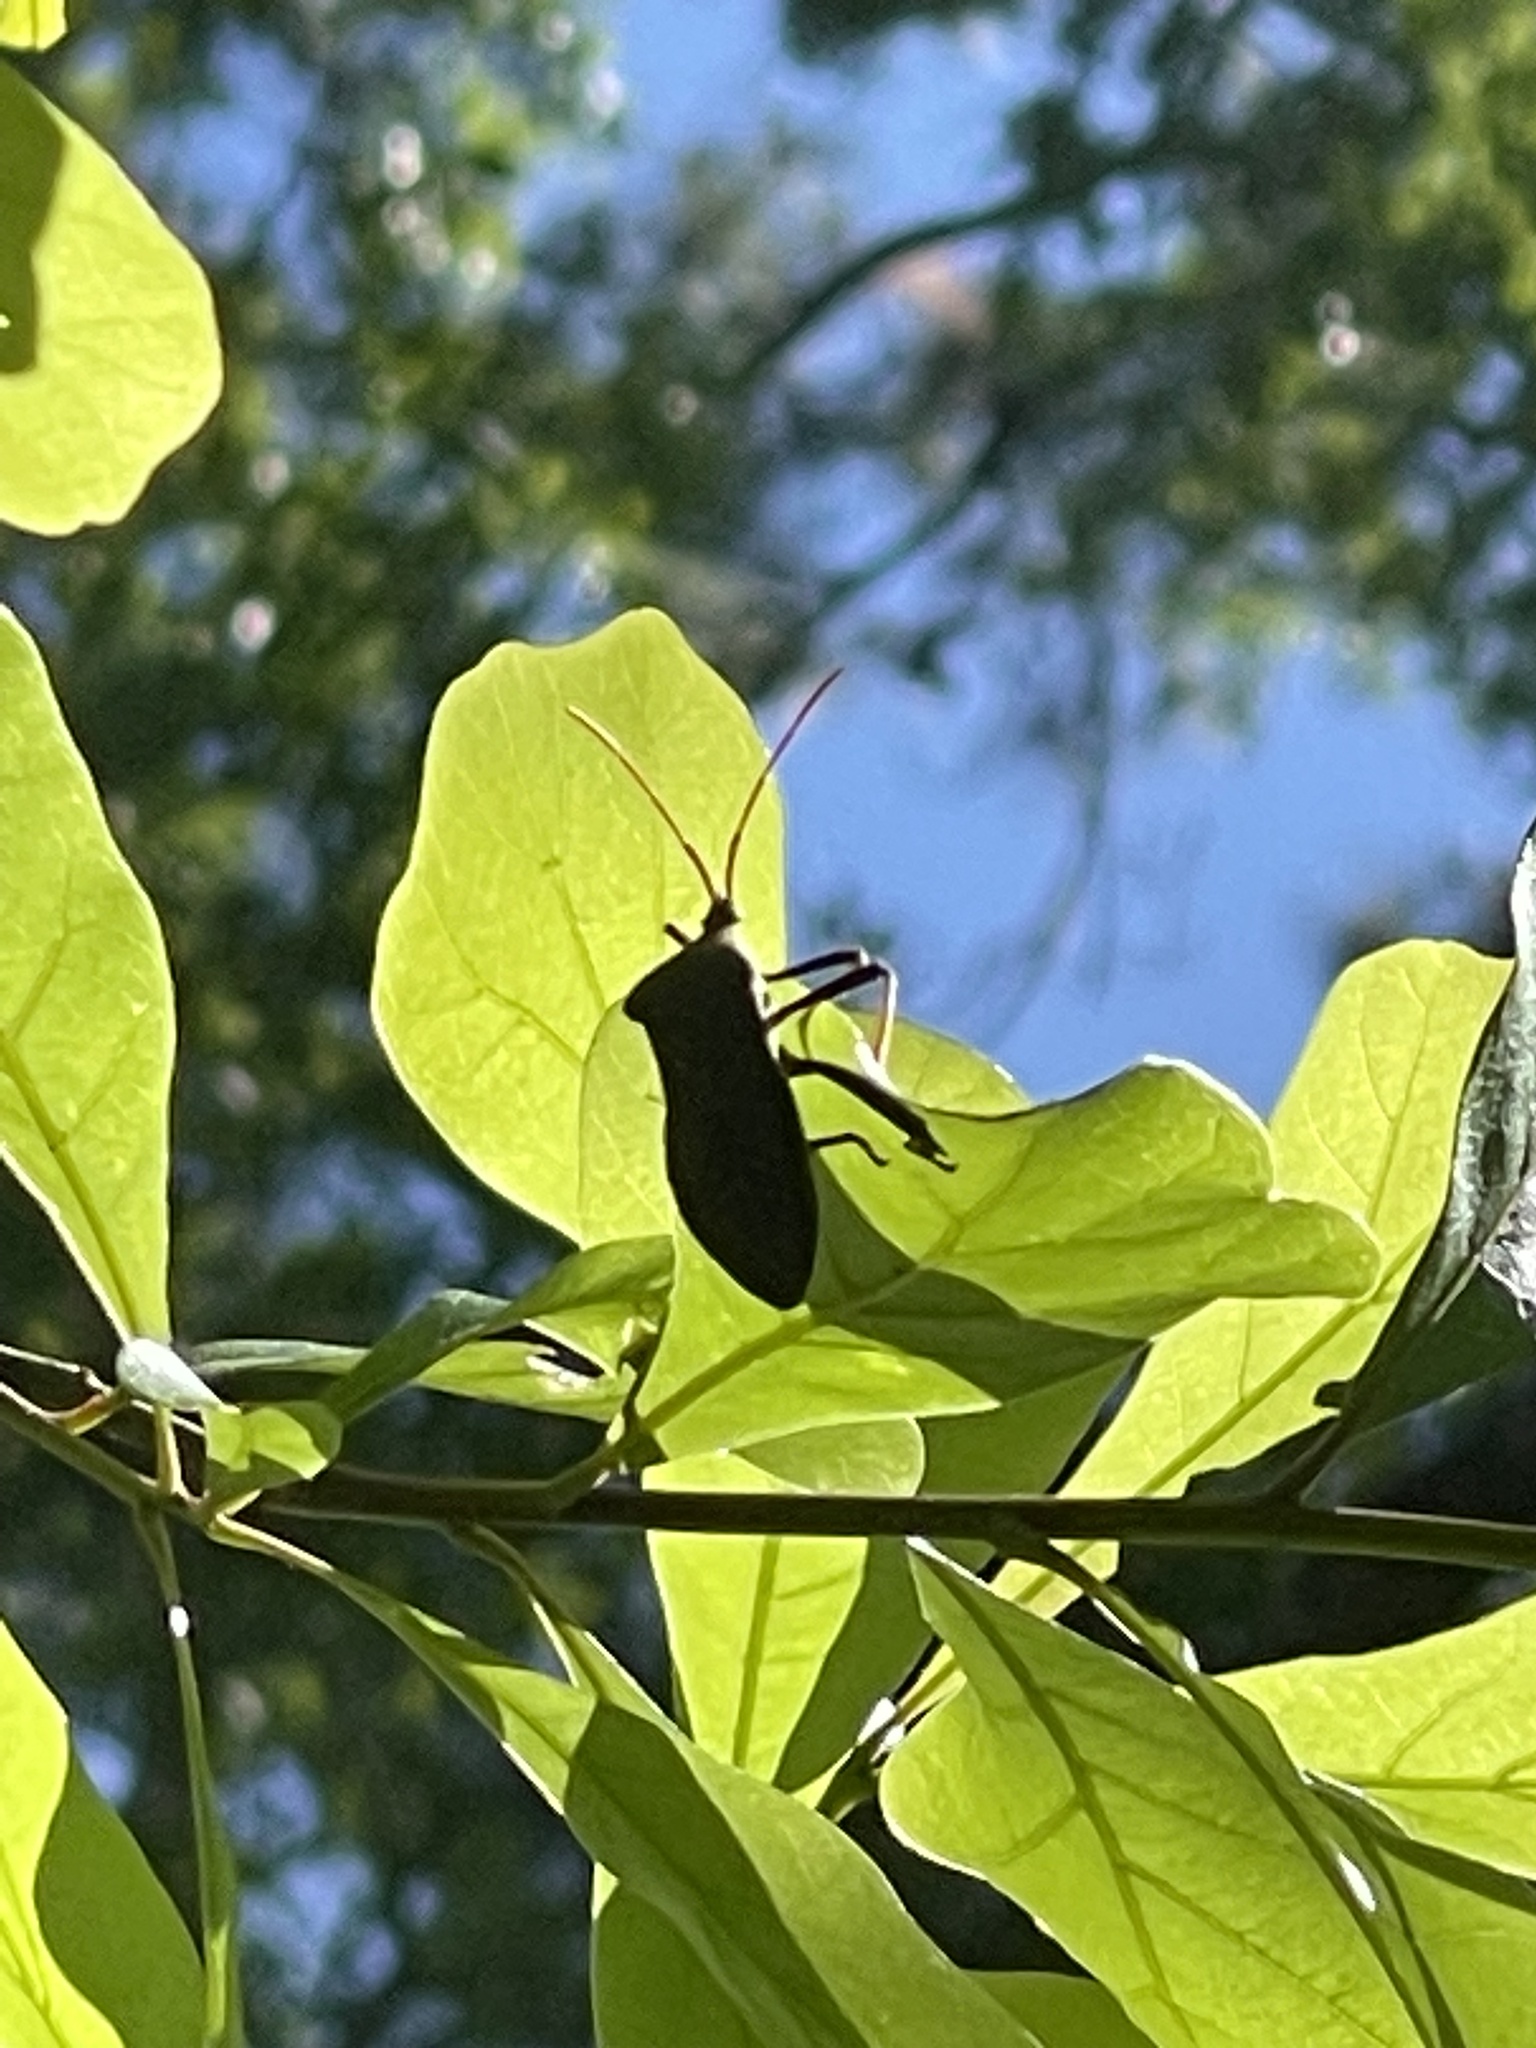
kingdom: Animalia
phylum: Arthropoda
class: Insecta
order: Hemiptera
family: Coreidae
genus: Acanthocephala
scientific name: Acanthocephala femorata
